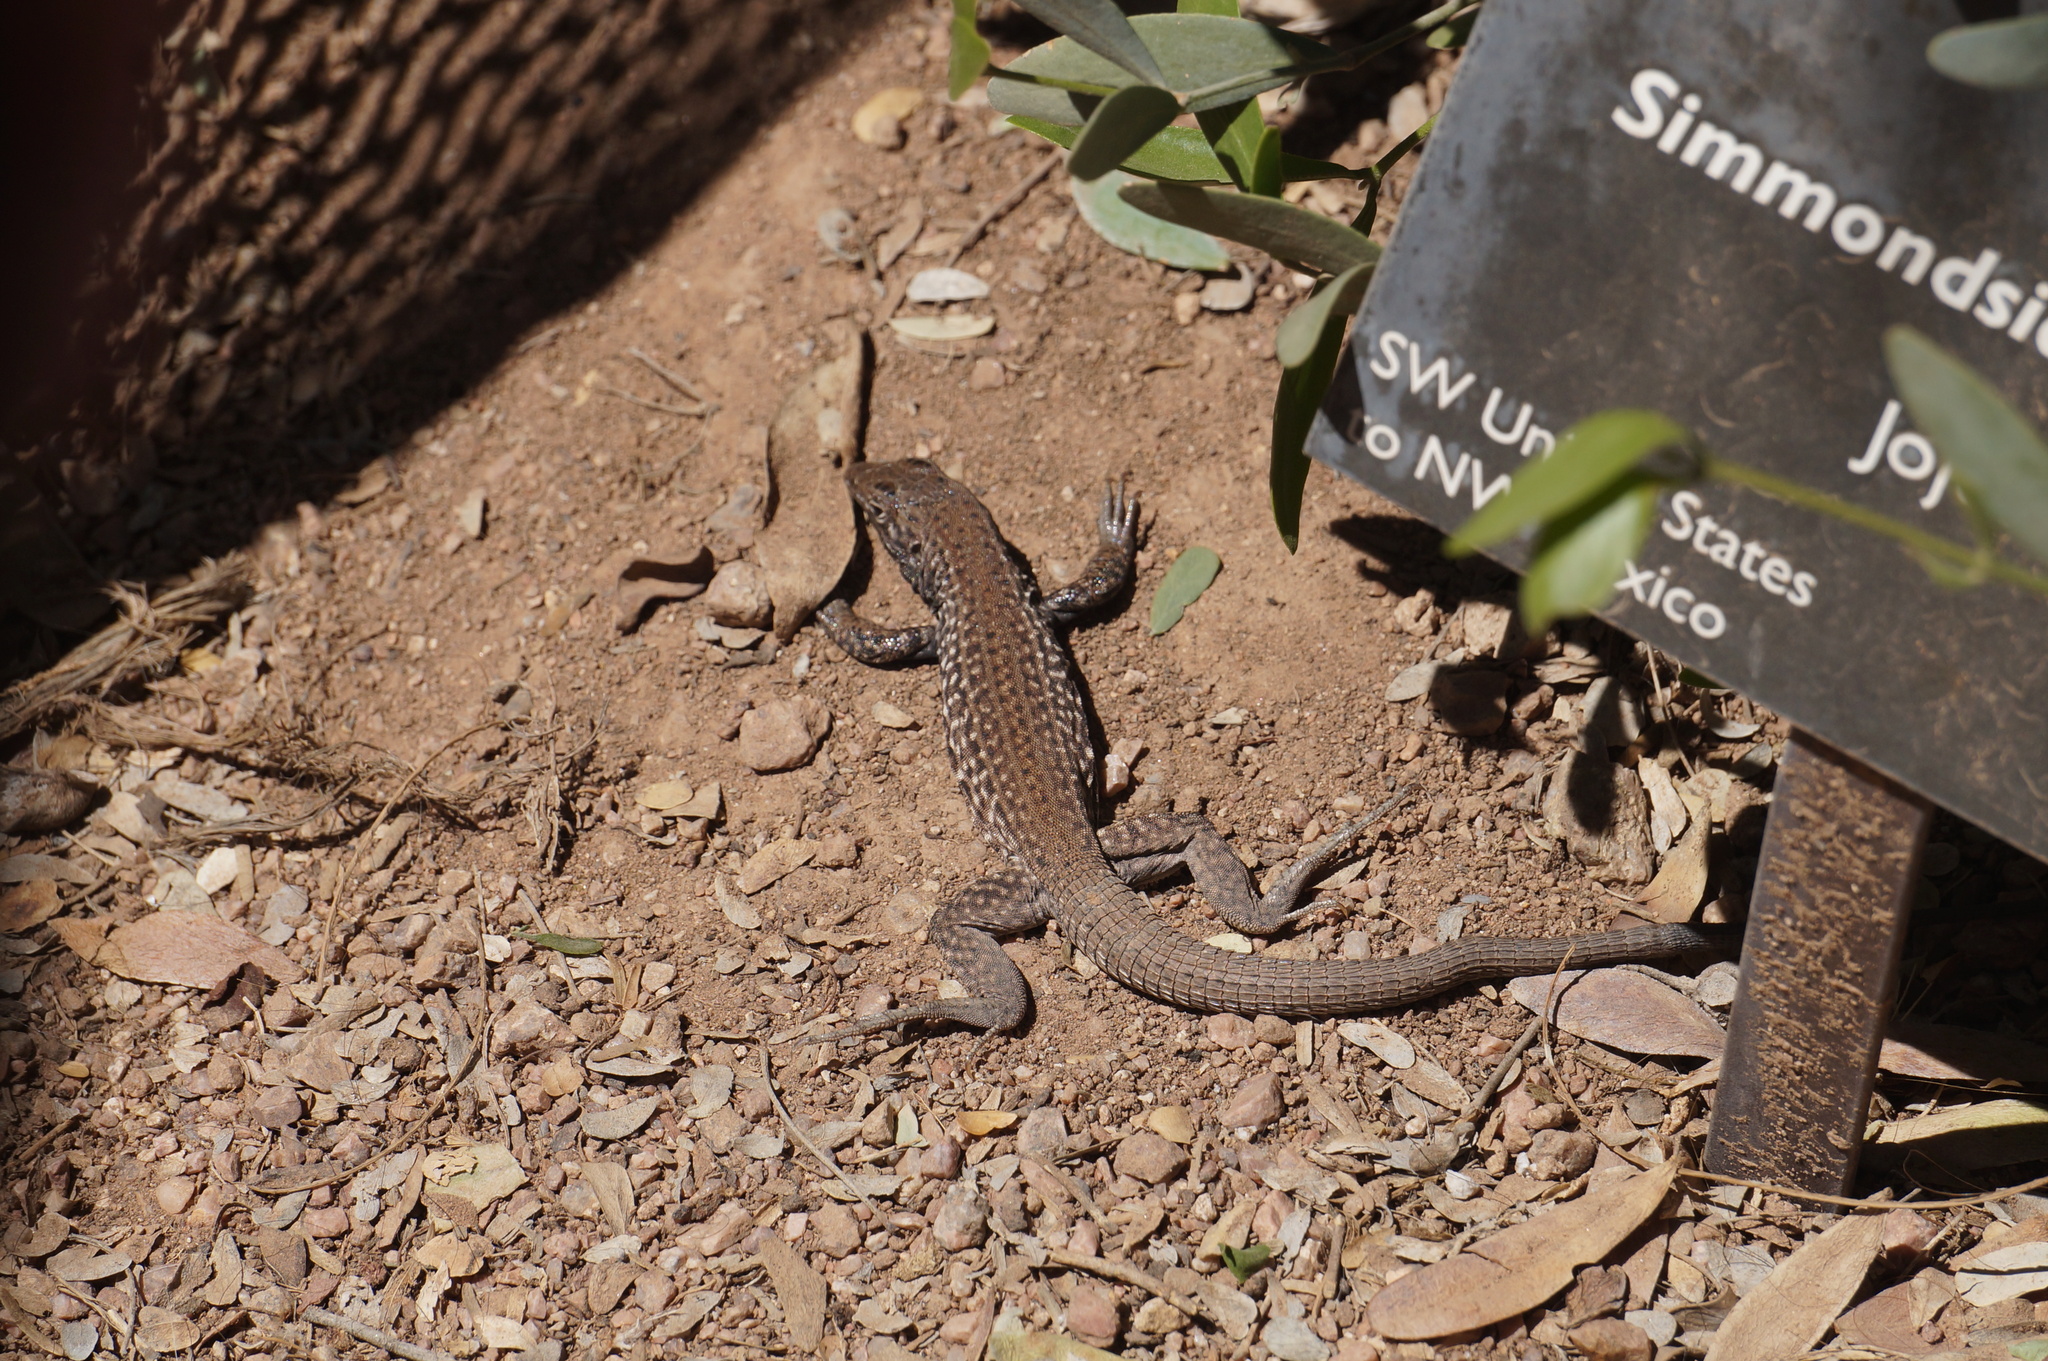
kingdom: Animalia
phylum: Chordata
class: Squamata
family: Teiidae
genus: Aspidoscelis
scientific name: Aspidoscelis tigris
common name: Tiger whiptail
